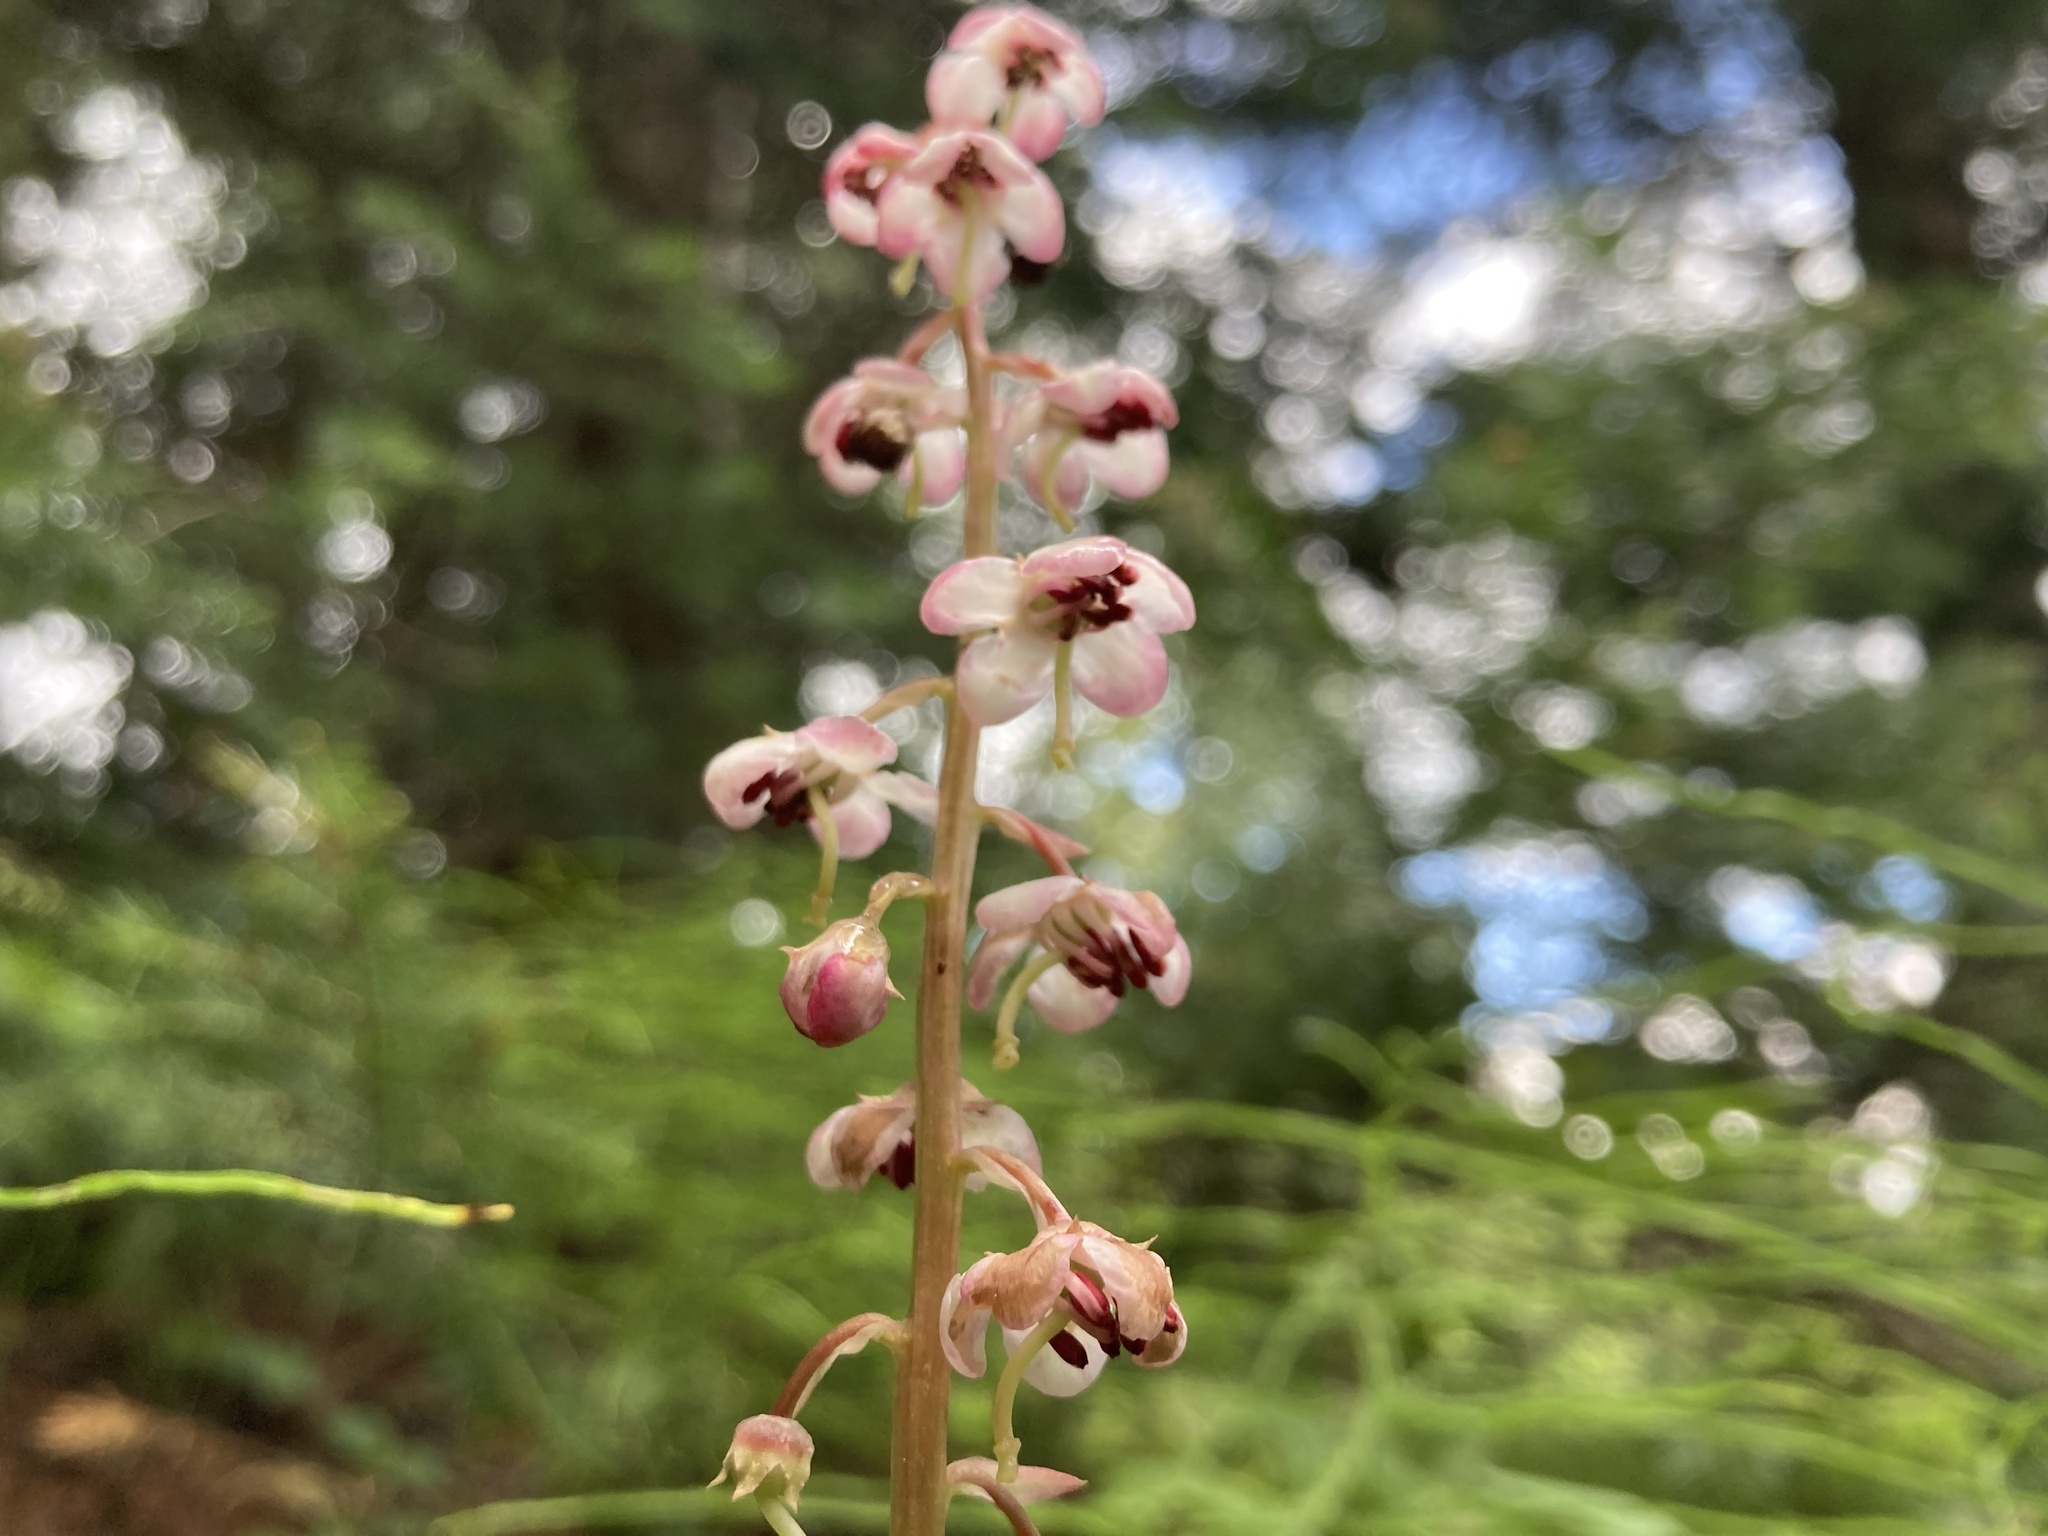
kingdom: Plantae
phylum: Tracheophyta
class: Magnoliopsida
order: Ericales
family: Ericaceae
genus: Pyrola
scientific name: Pyrola asarifolia
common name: Bog wintergreen
